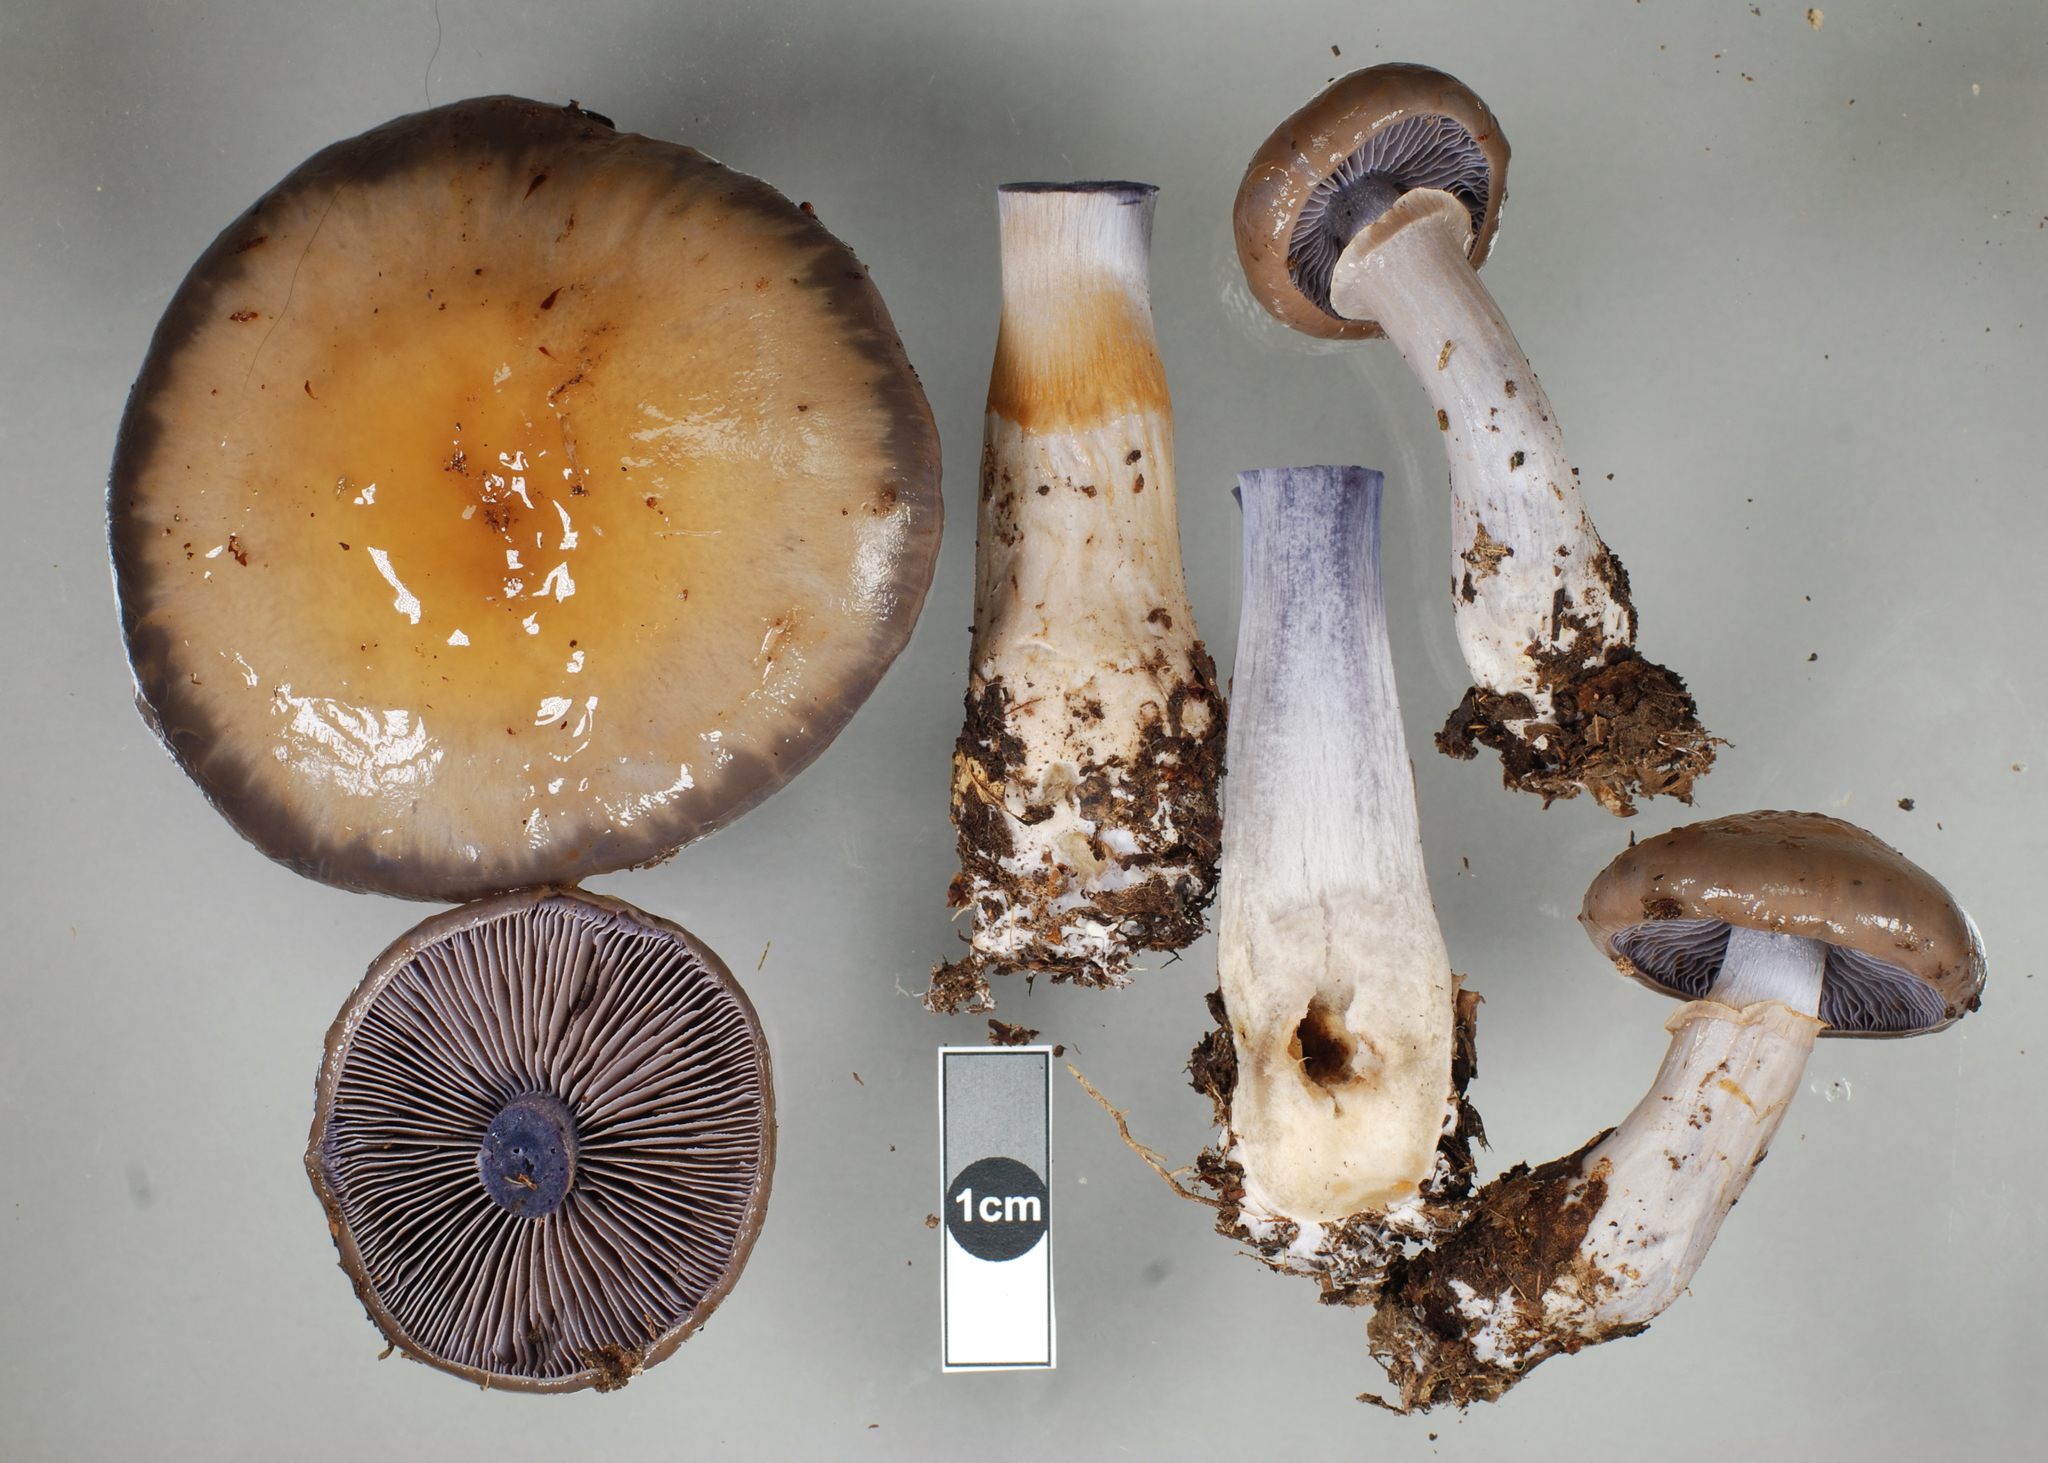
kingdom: Fungi
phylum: Basidiomycota
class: Agaricomycetes
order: Agaricales
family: Cortinariaceae
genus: Cortinarius
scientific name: Cortinarius taylorianus
